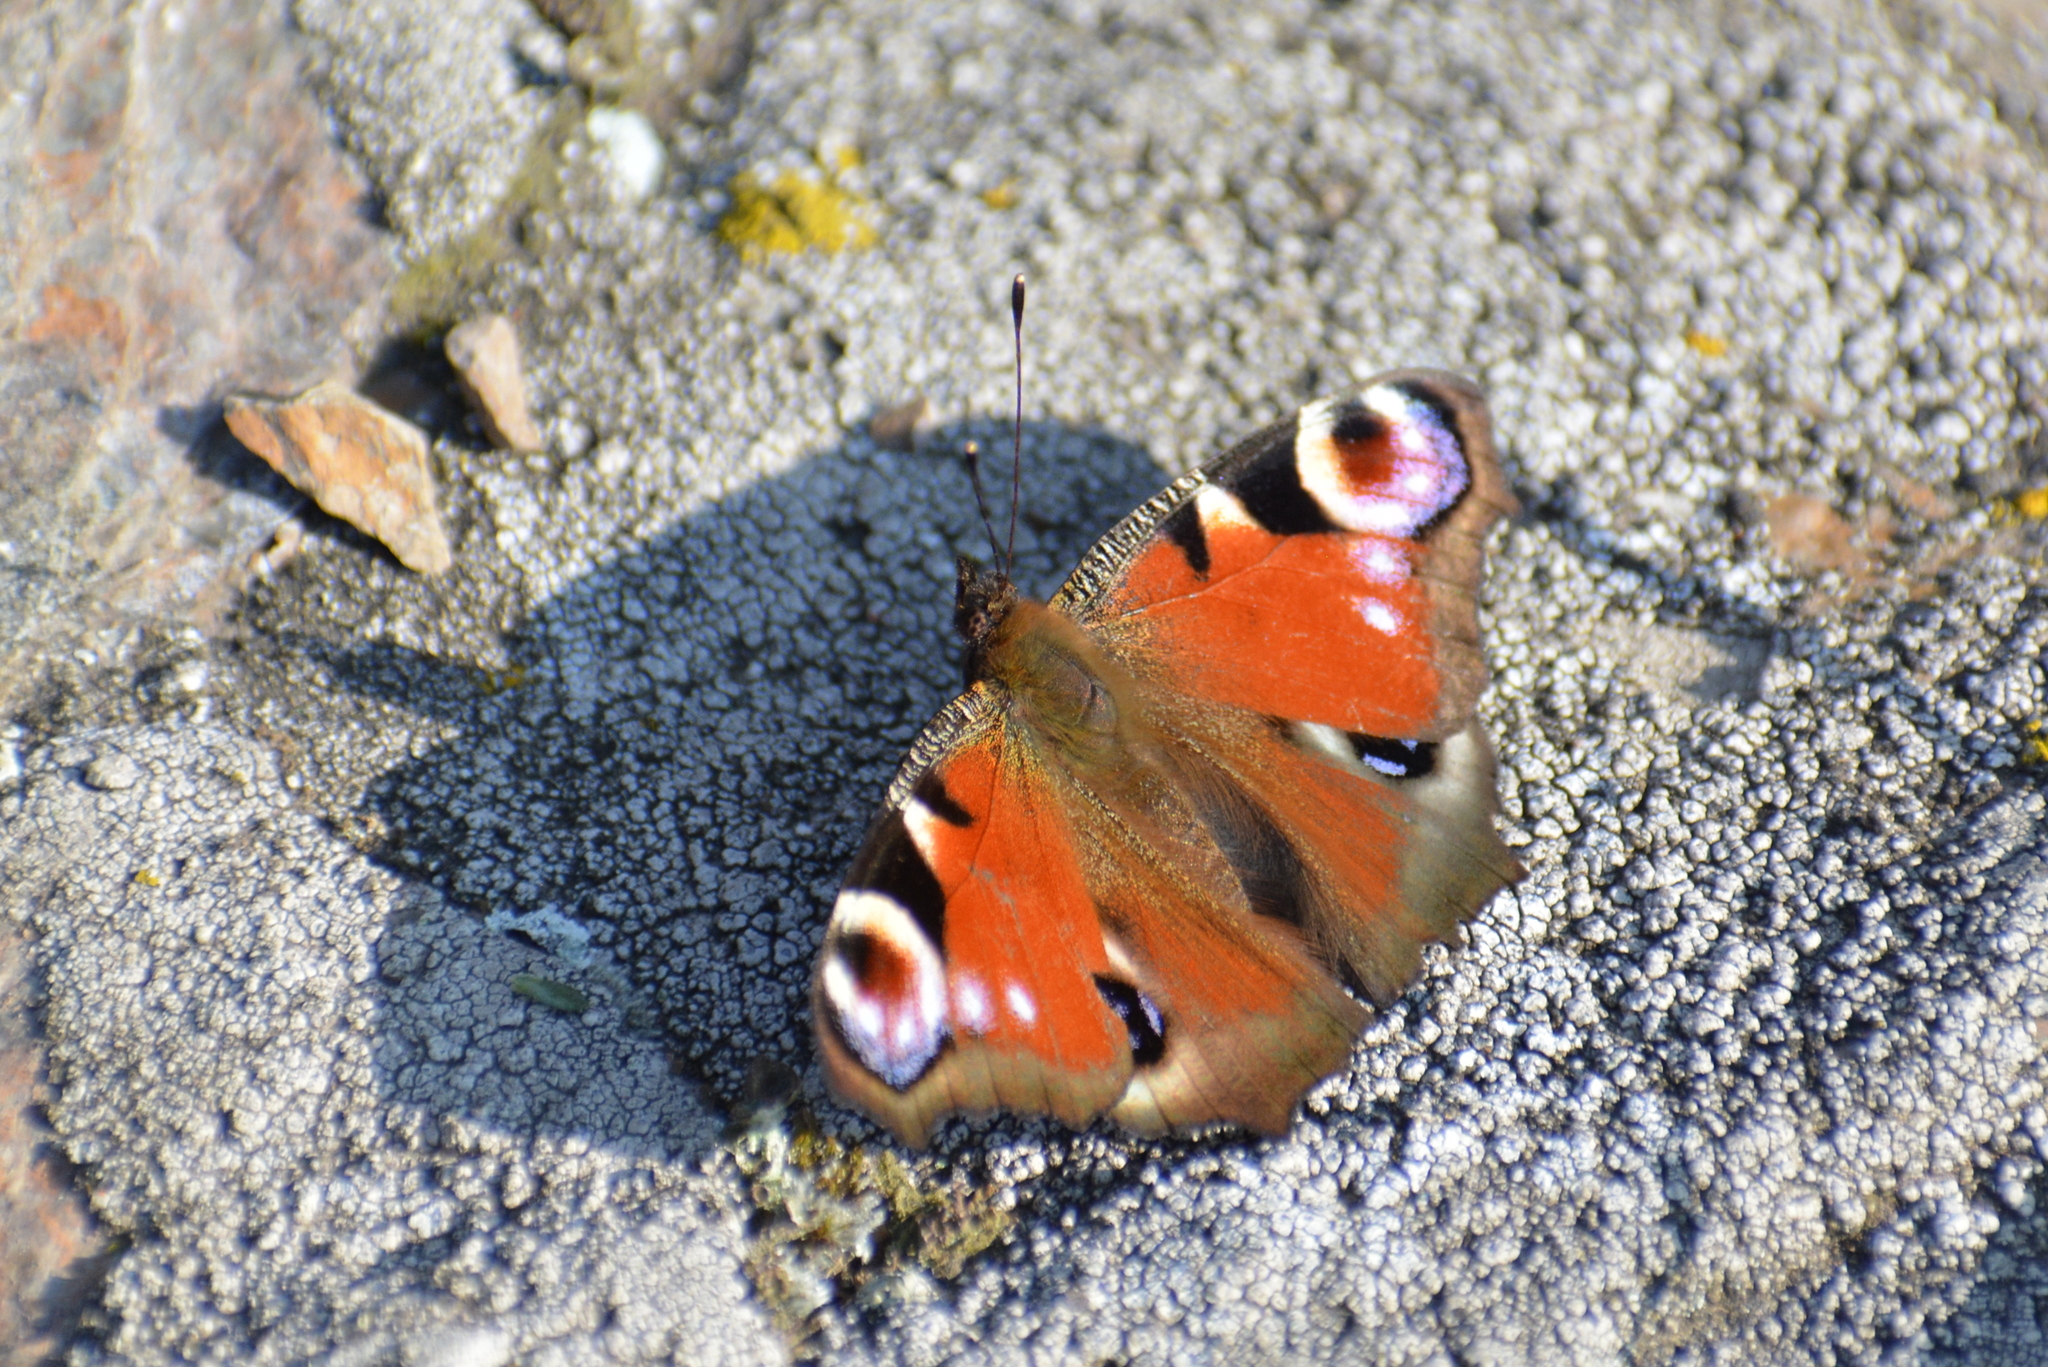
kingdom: Animalia
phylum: Arthropoda
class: Insecta
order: Lepidoptera
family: Nymphalidae
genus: Aglais
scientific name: Aglais io
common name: Peacock
